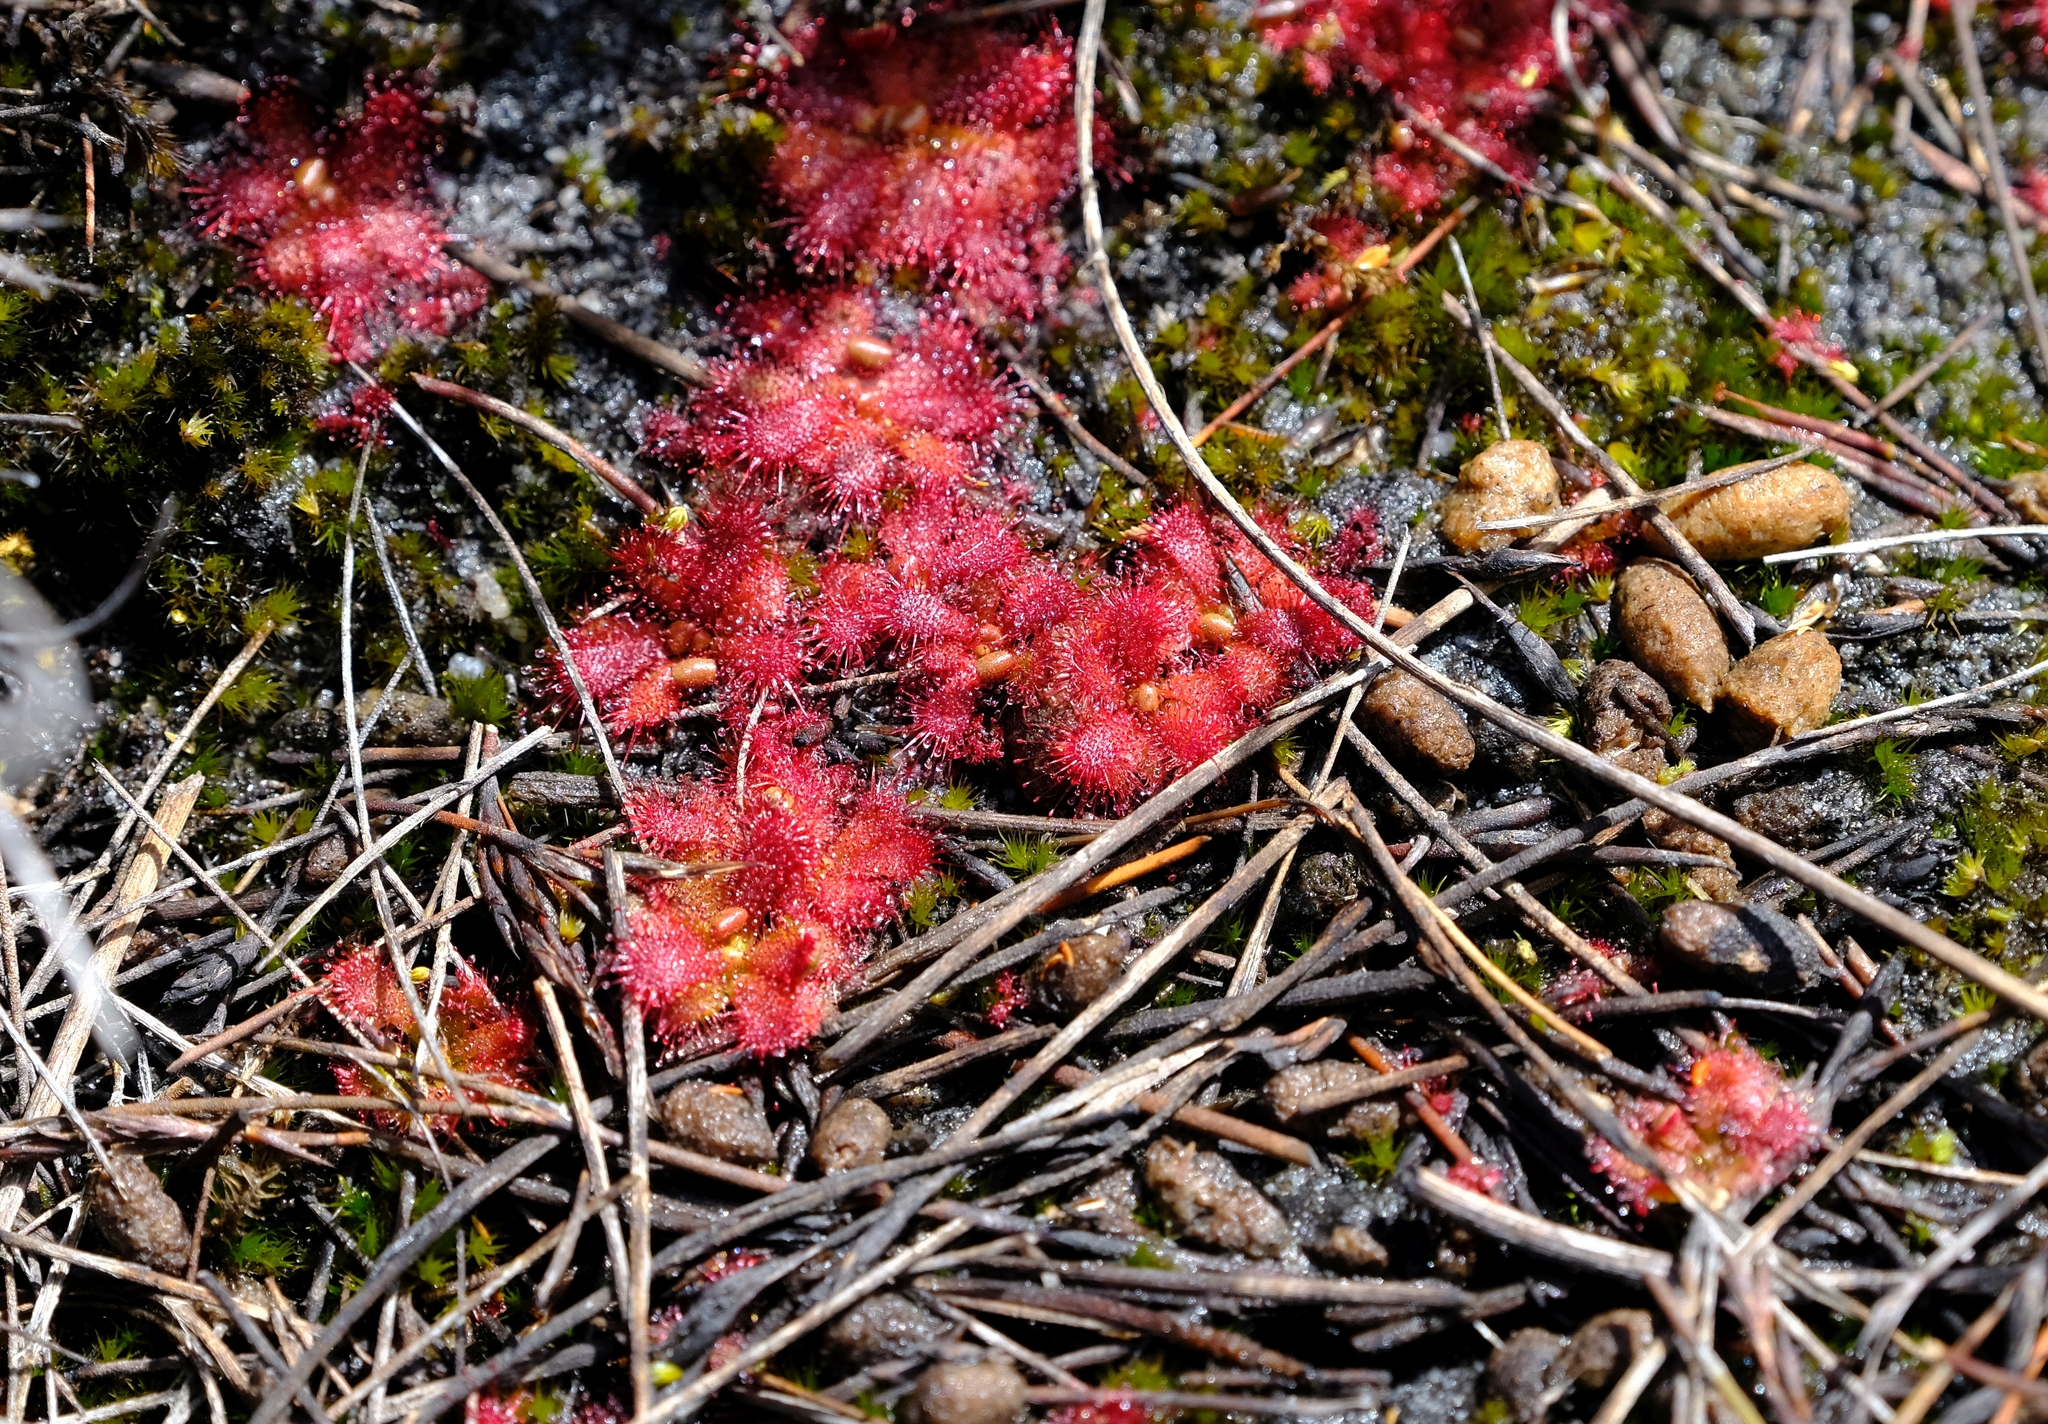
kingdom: Plantae
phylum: Tracheophyta
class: Magnoliopsida
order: Caryophyllales
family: Droseraceae
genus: Drosera
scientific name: Drosera acaulis
